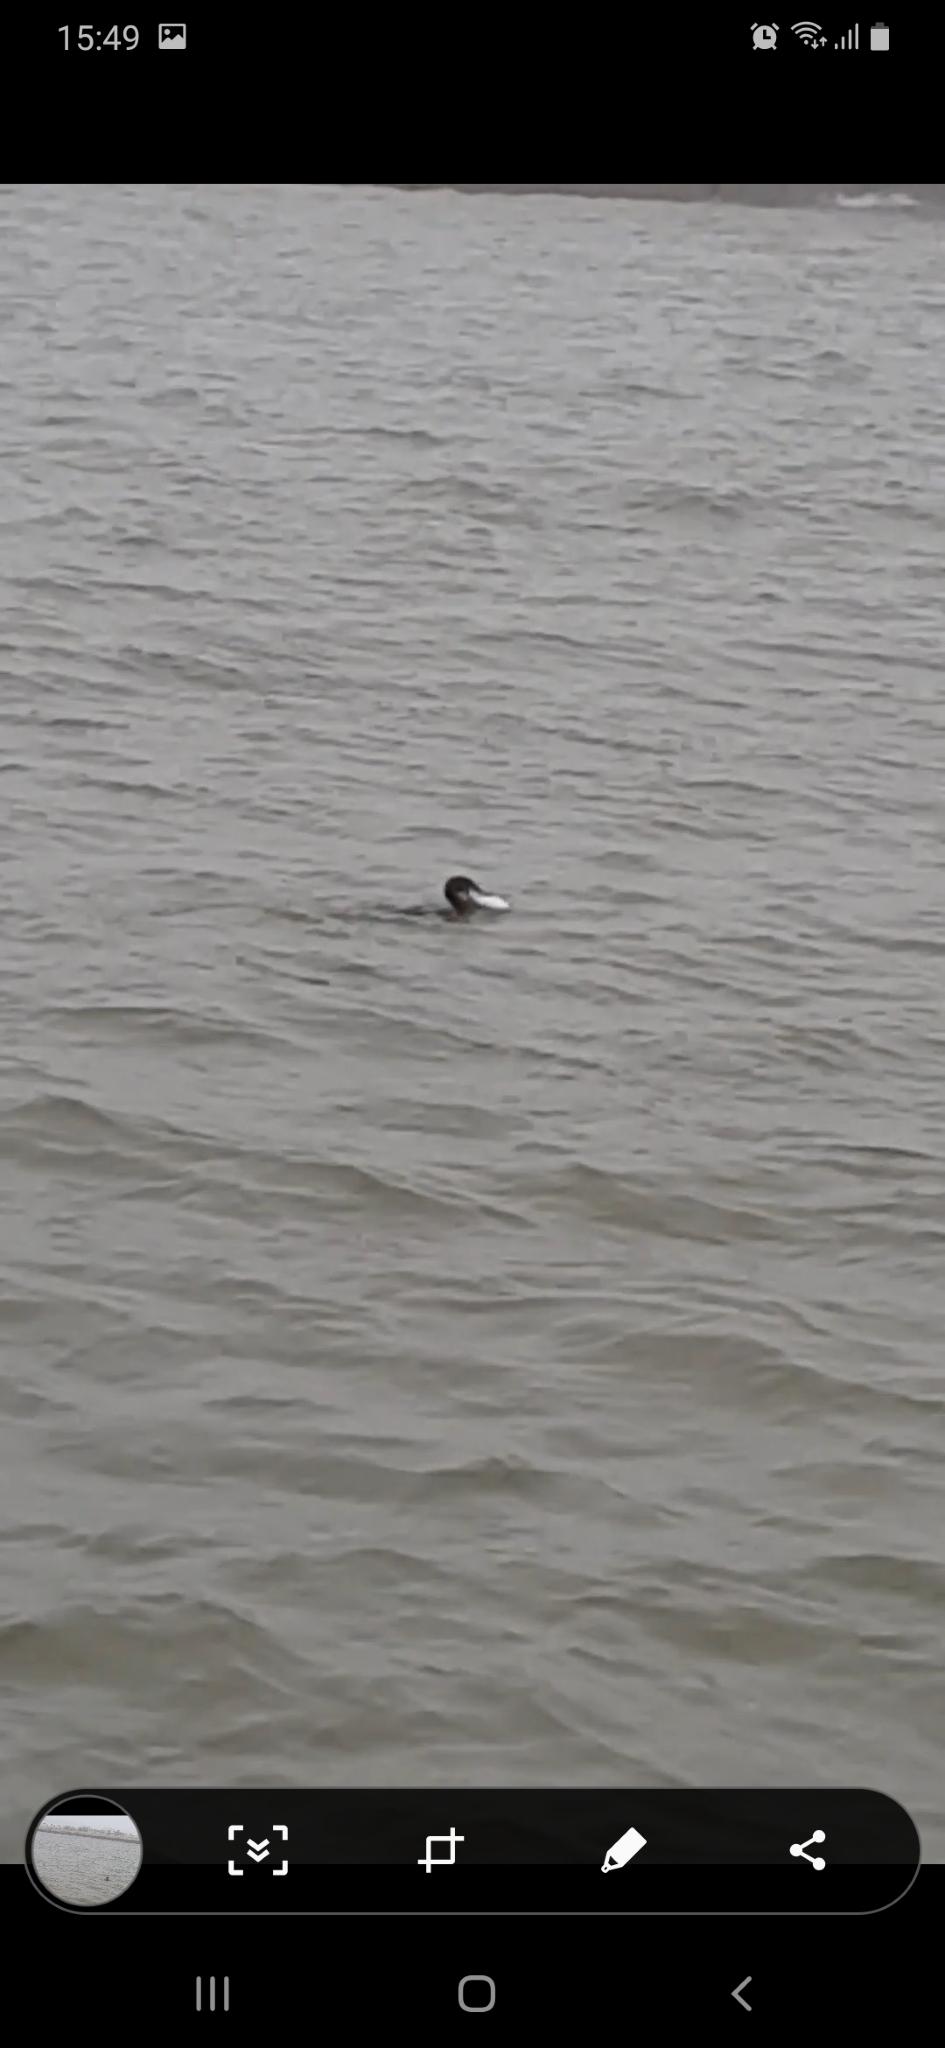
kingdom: Animalia
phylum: Chordata
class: Aves
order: Suliformes
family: Phalacrocoracidae
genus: Nannopterum
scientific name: Nannopterum
